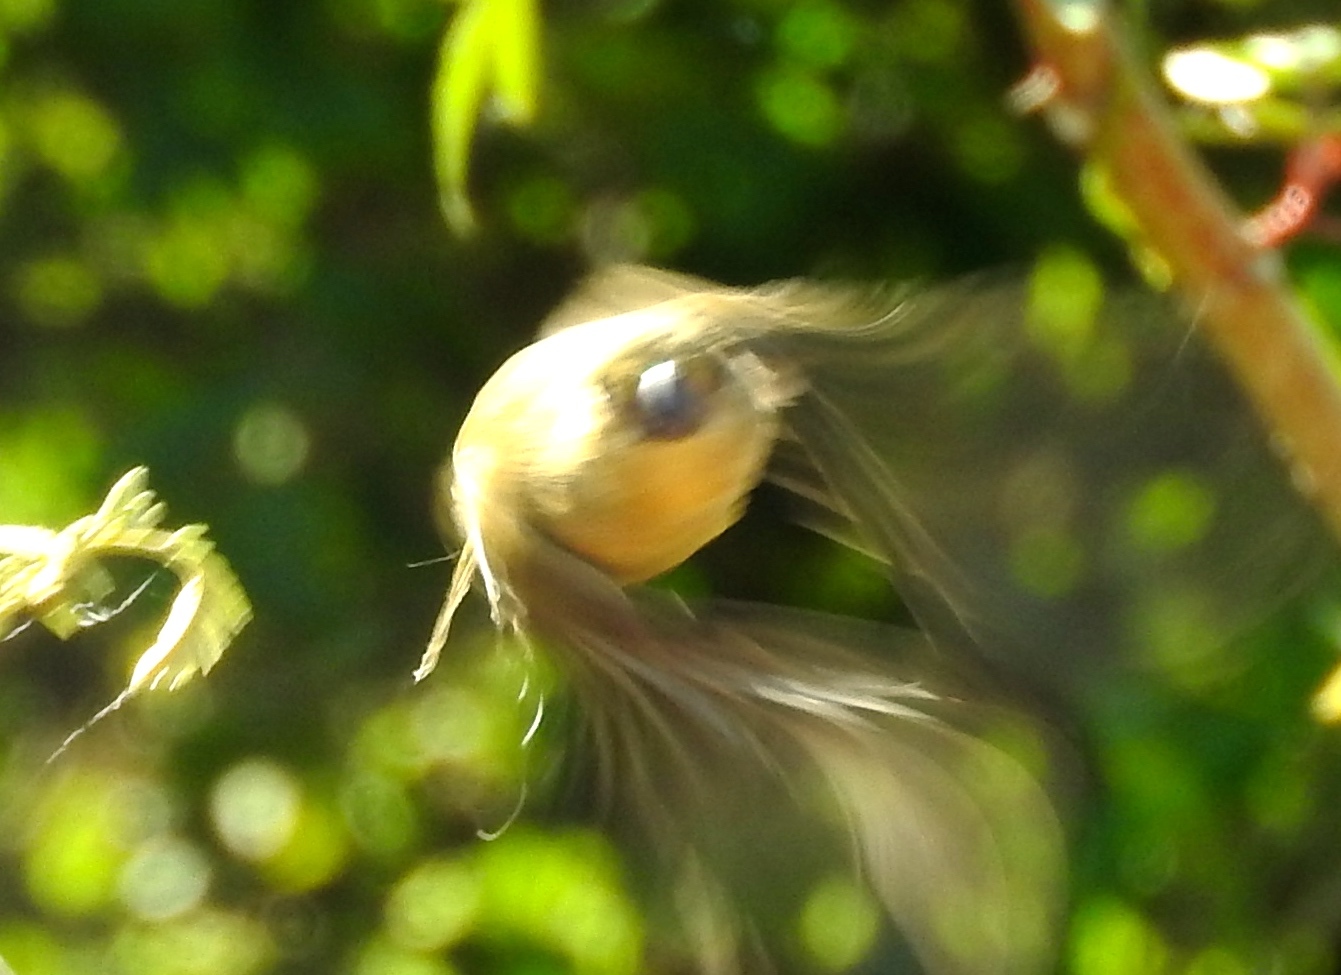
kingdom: Animalia
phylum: Chordata
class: Aves
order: Passeriformes
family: Thraupidae
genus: Sporophila
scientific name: Sporophila torqueola
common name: White-collared seedeater
